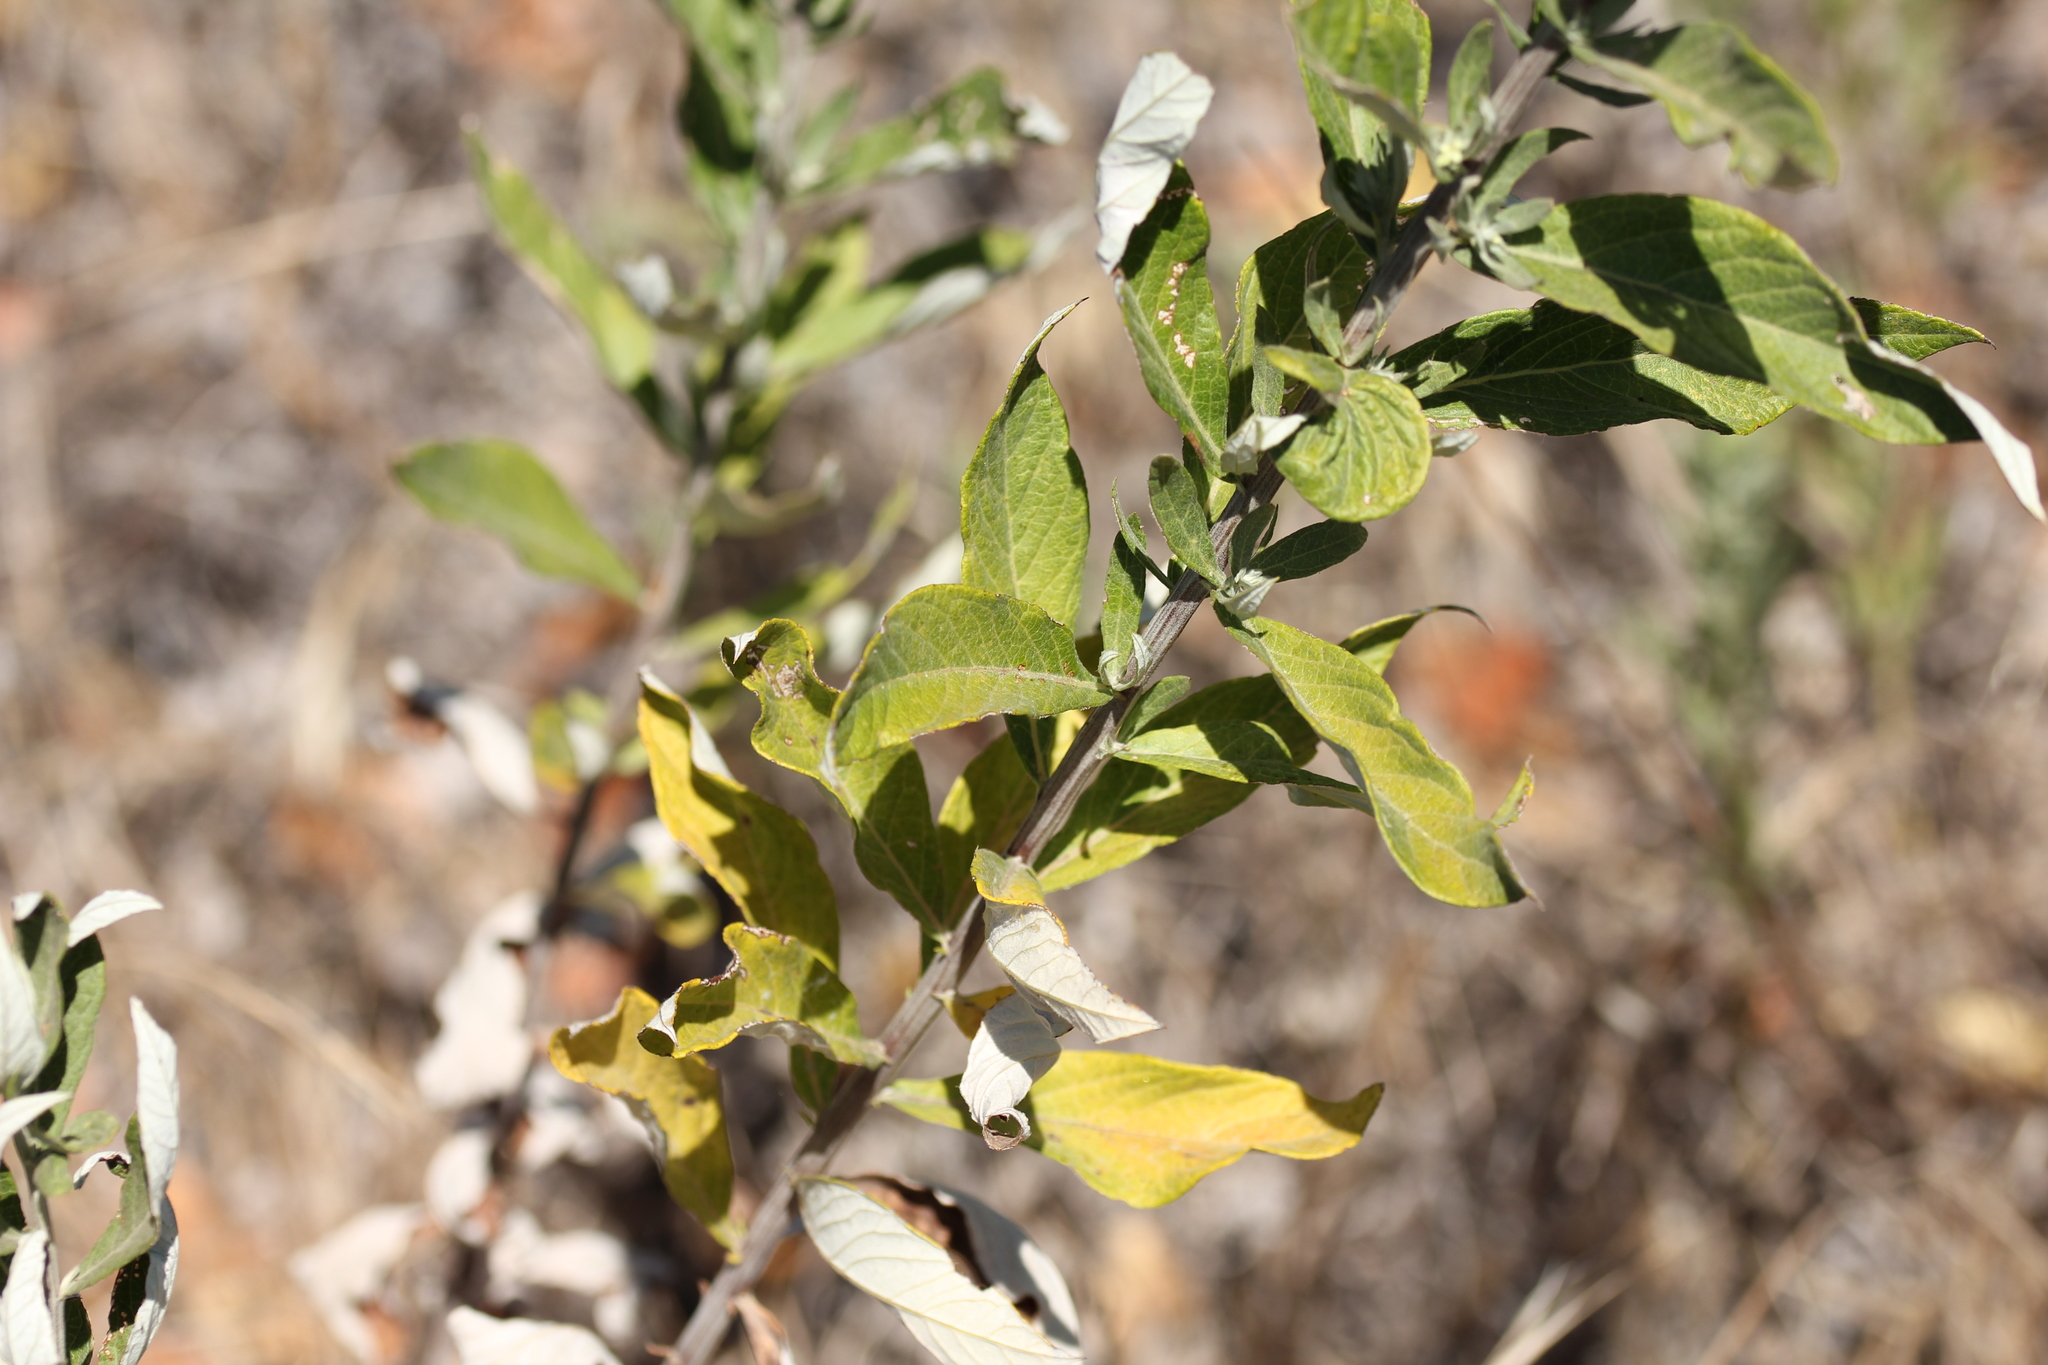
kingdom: Plantae
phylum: Tracheophyta
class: Magnoliopsida
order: Asterales
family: Asteraceae
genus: Artemisia
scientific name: Artemisia douglasiana
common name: Northwest mugwort
